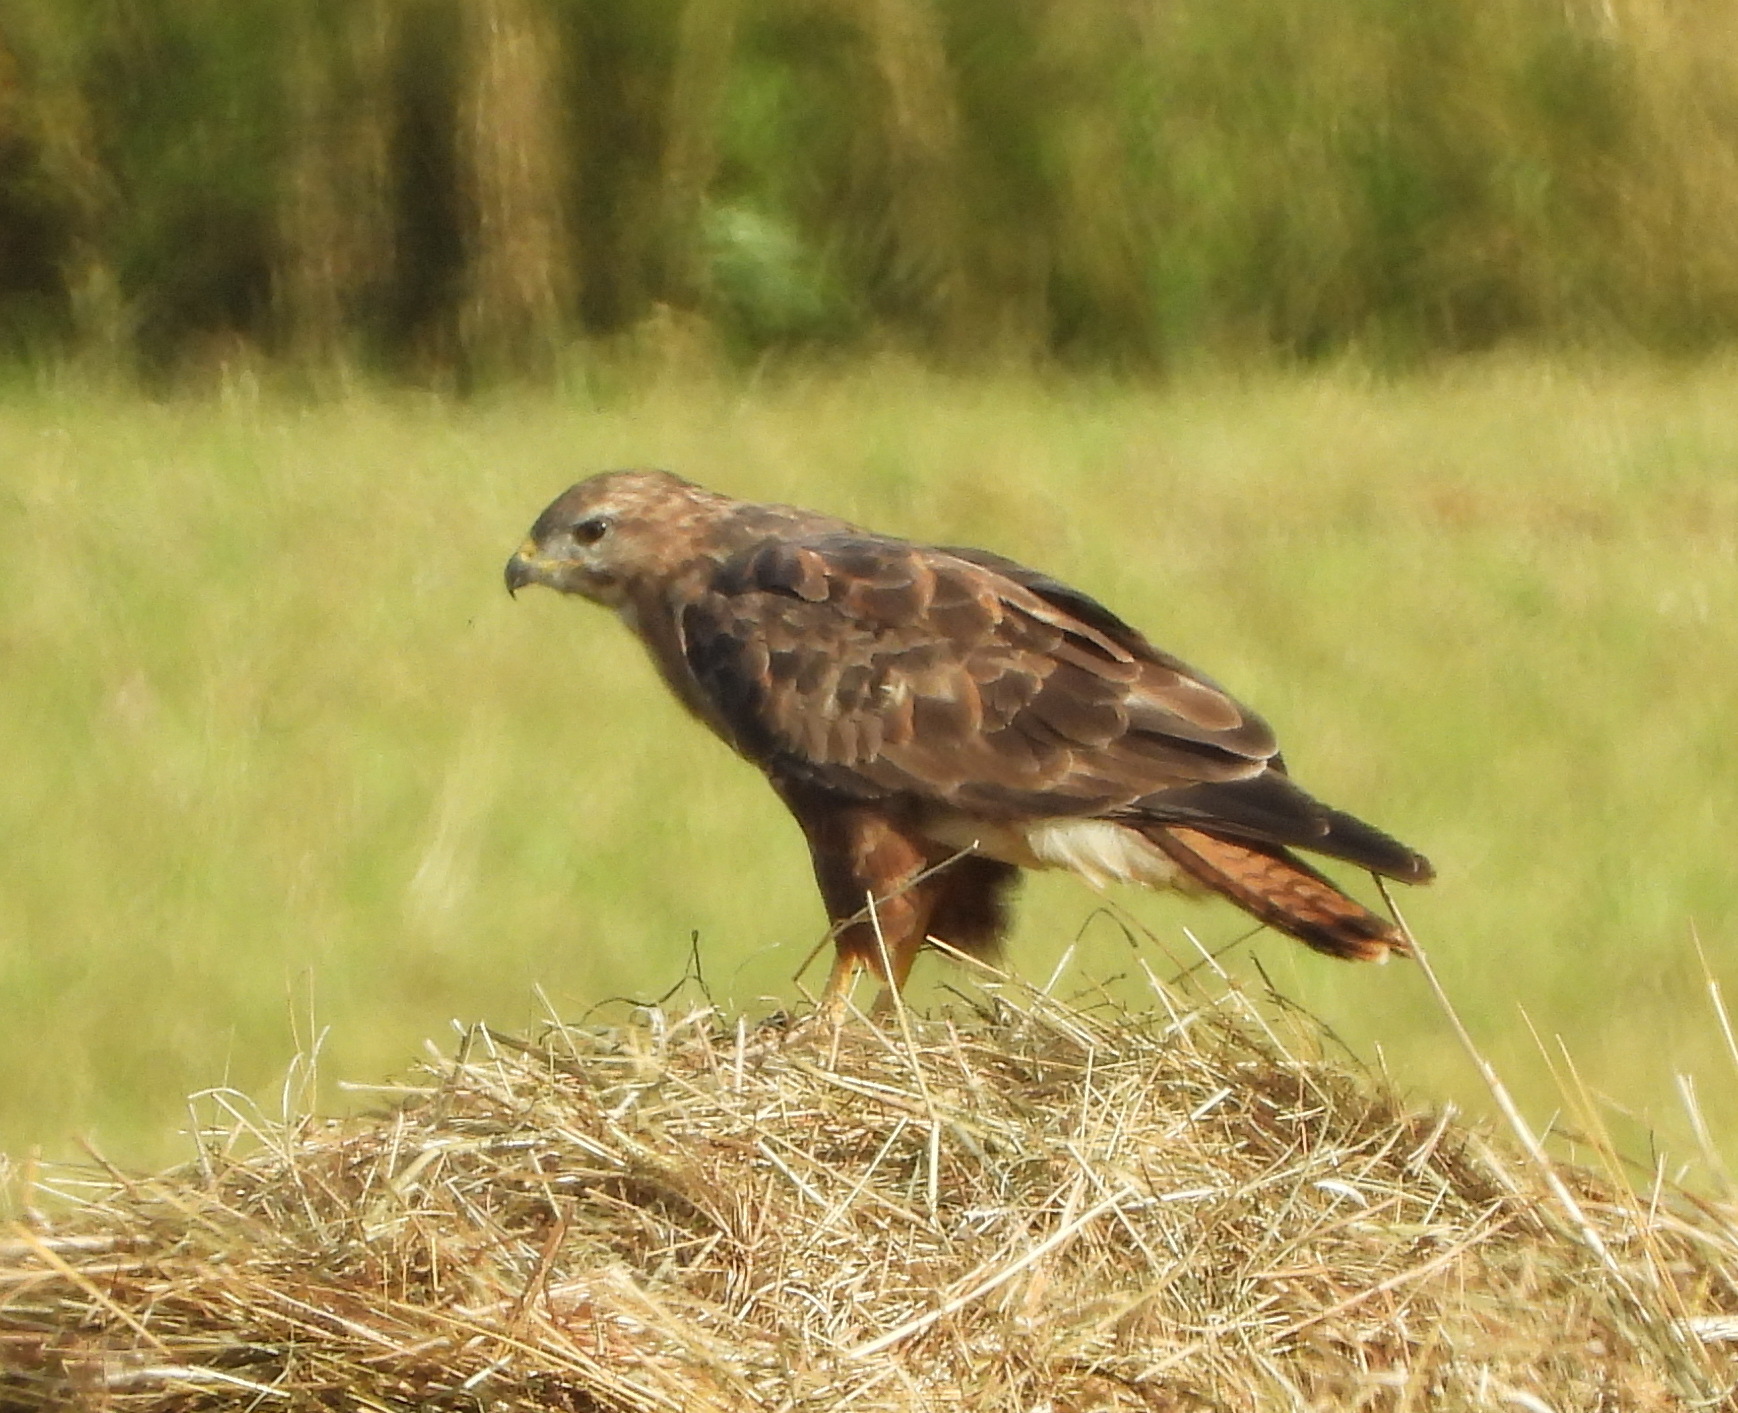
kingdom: Animalia
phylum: Chordata
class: Aves
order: Accipitriformes
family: Accipitridae
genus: Buteo
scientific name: Buteo buteo
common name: Common buzzard
